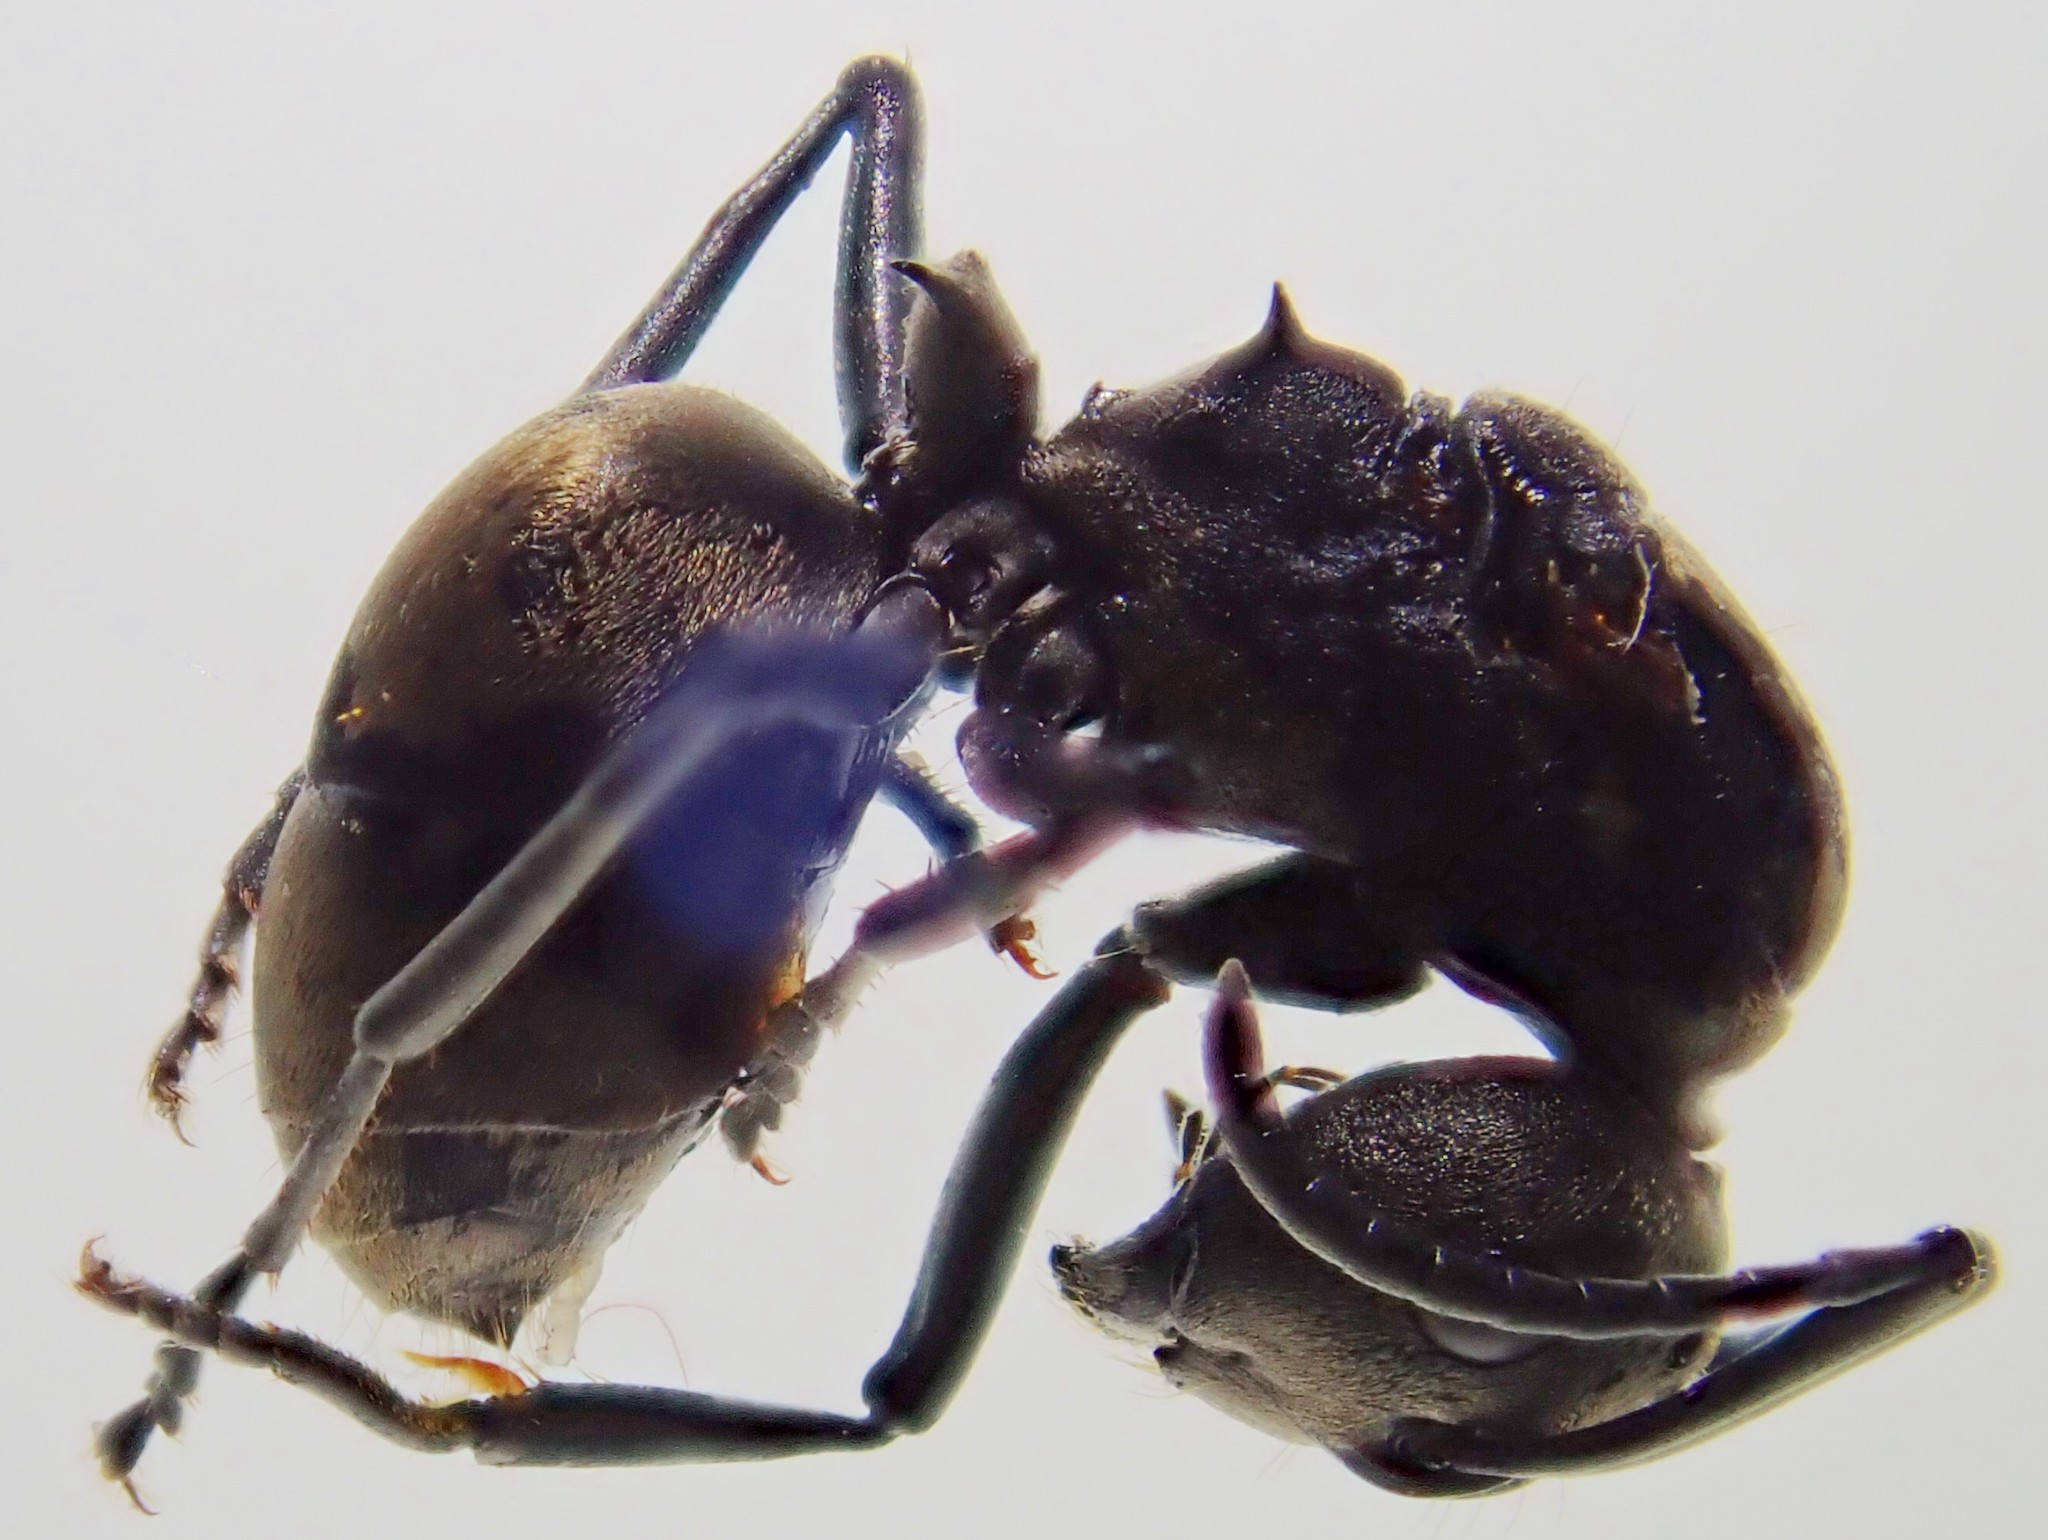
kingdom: Animalia
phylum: Arthropoda
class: Insecta
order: Hymenoptera
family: Formicidae
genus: Polyrhachis
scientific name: Polyrhachis dives
